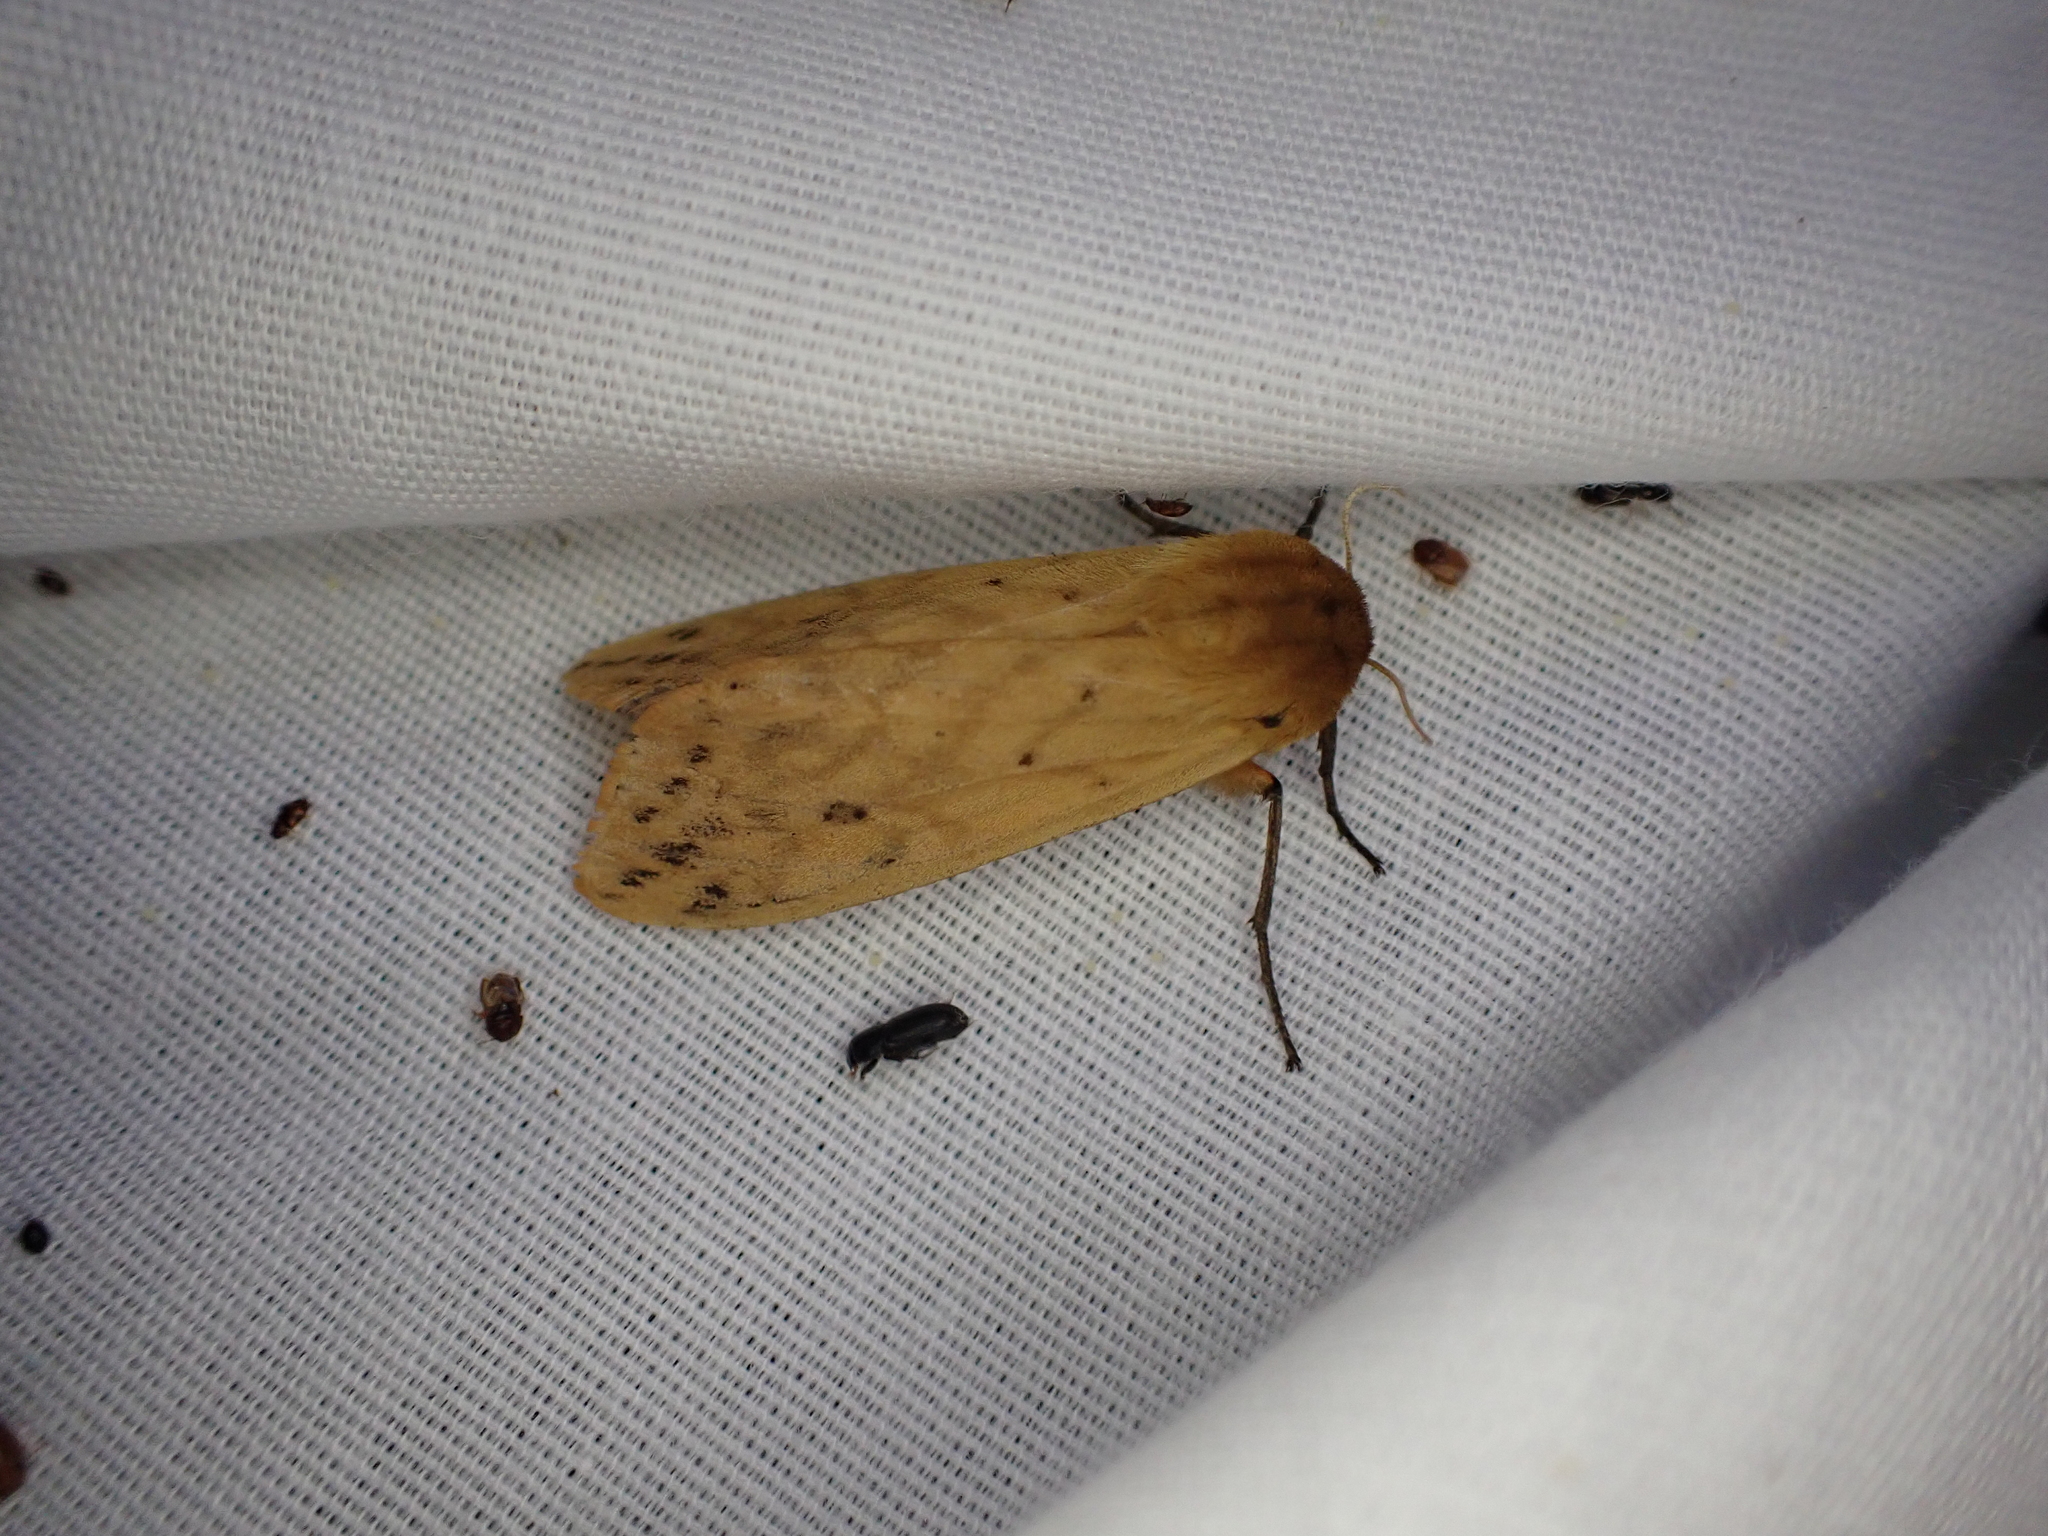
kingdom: Animalia
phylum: Arthropoda
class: Insecta
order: Lepidoptera
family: Erebidae
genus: Pyrrharctia
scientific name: Pyrrharctia isabella
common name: Isabella tiger moth
